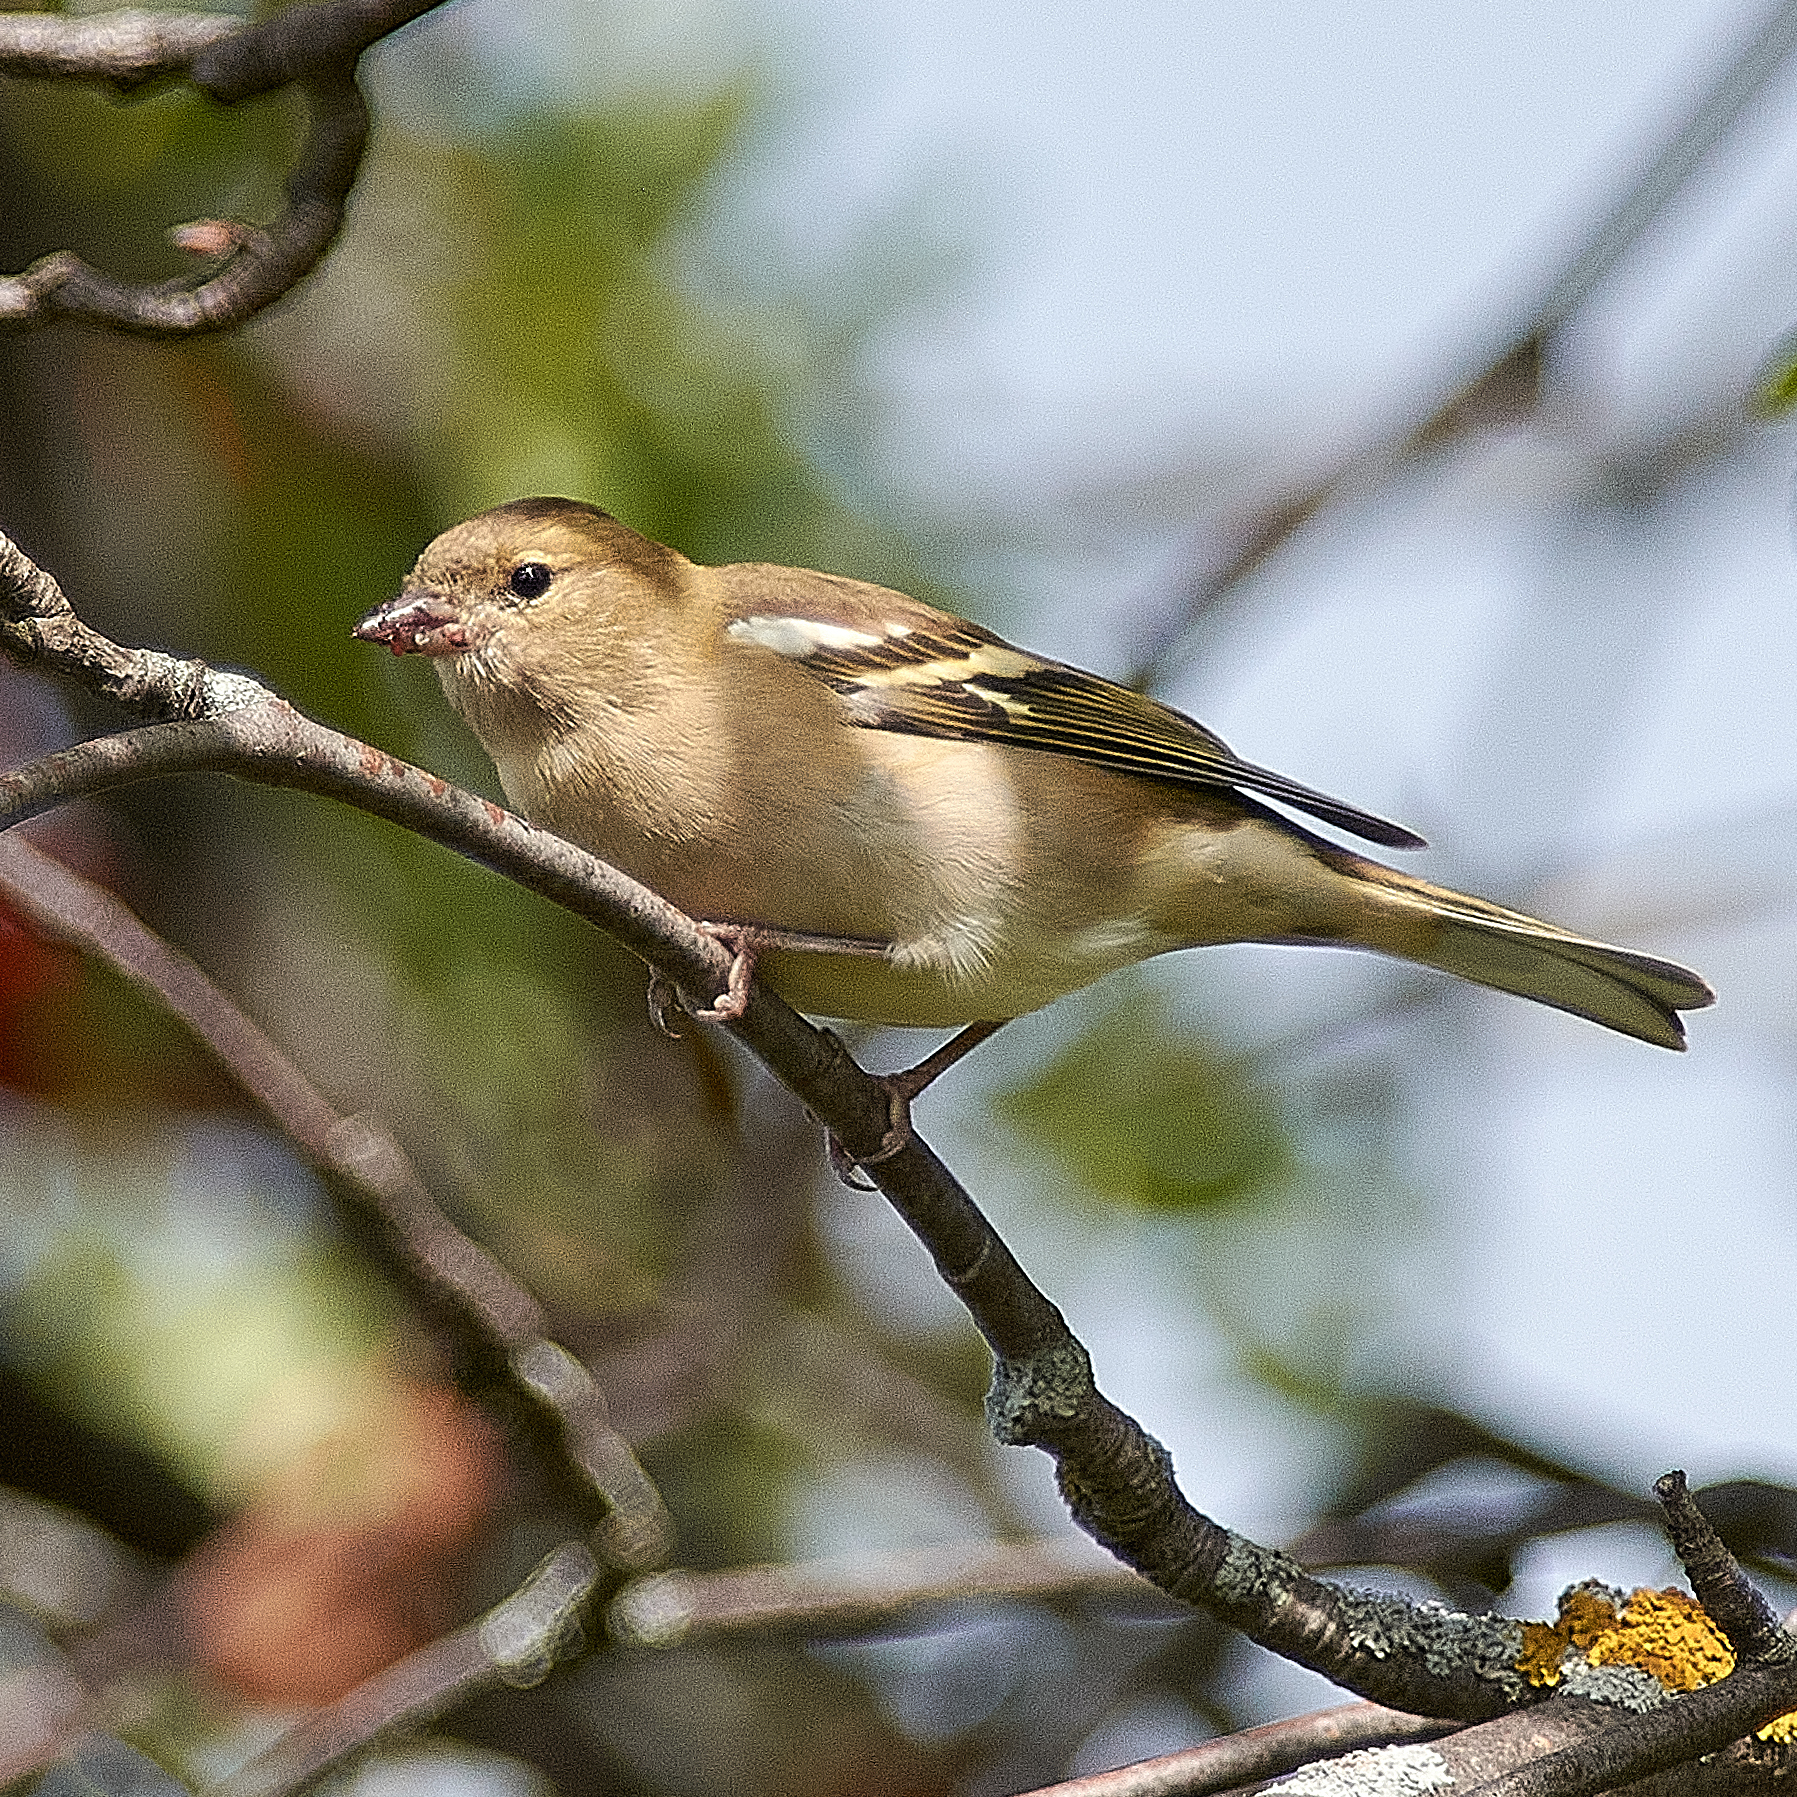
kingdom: Animalia
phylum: Chordata
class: Aves
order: Passeriformes
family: Fringillidae
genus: Fringilla
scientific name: Fringilla coelebs
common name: Common chaffinch
